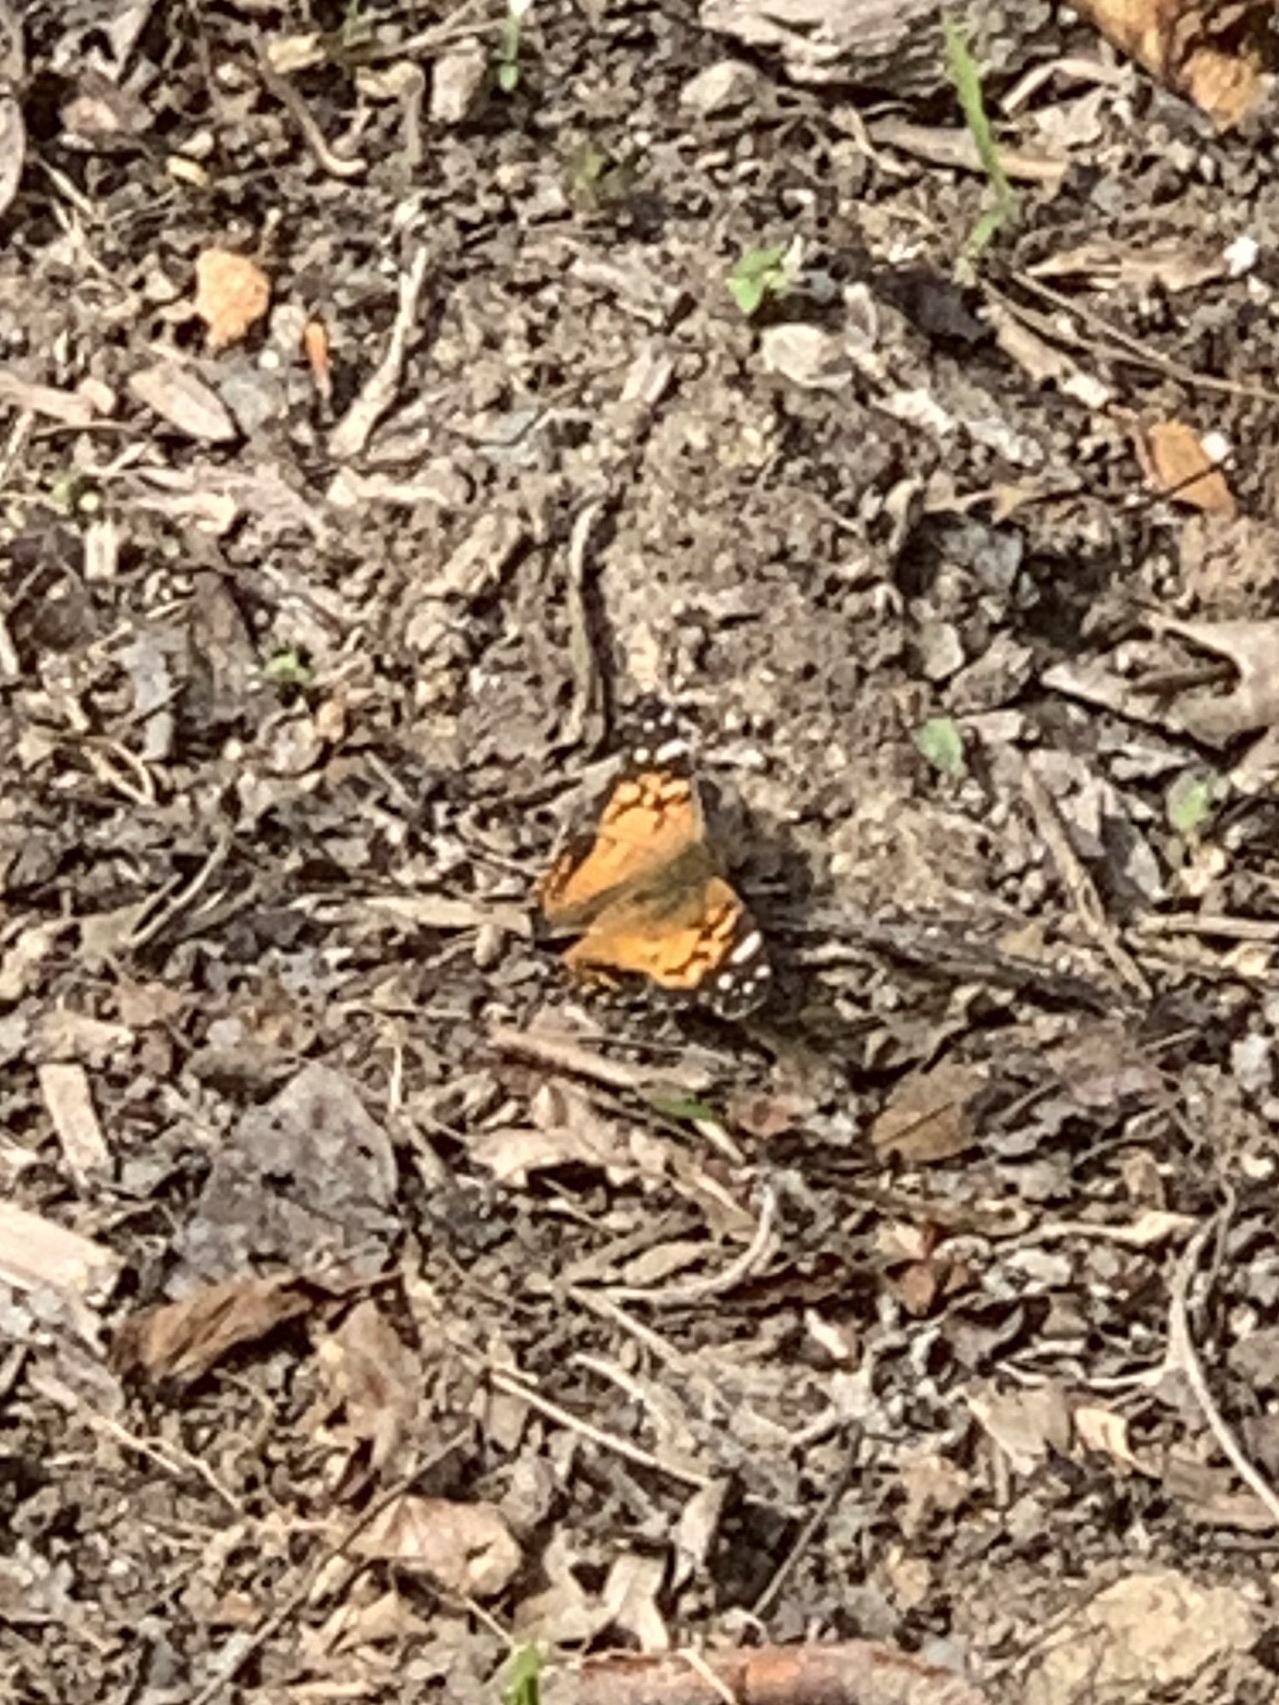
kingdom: Animalia
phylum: Arthropoda
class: Insecta
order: Lepidoptera
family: Nymphalidae
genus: Vanessa
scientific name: Vanessa virginiensis
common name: American lady
